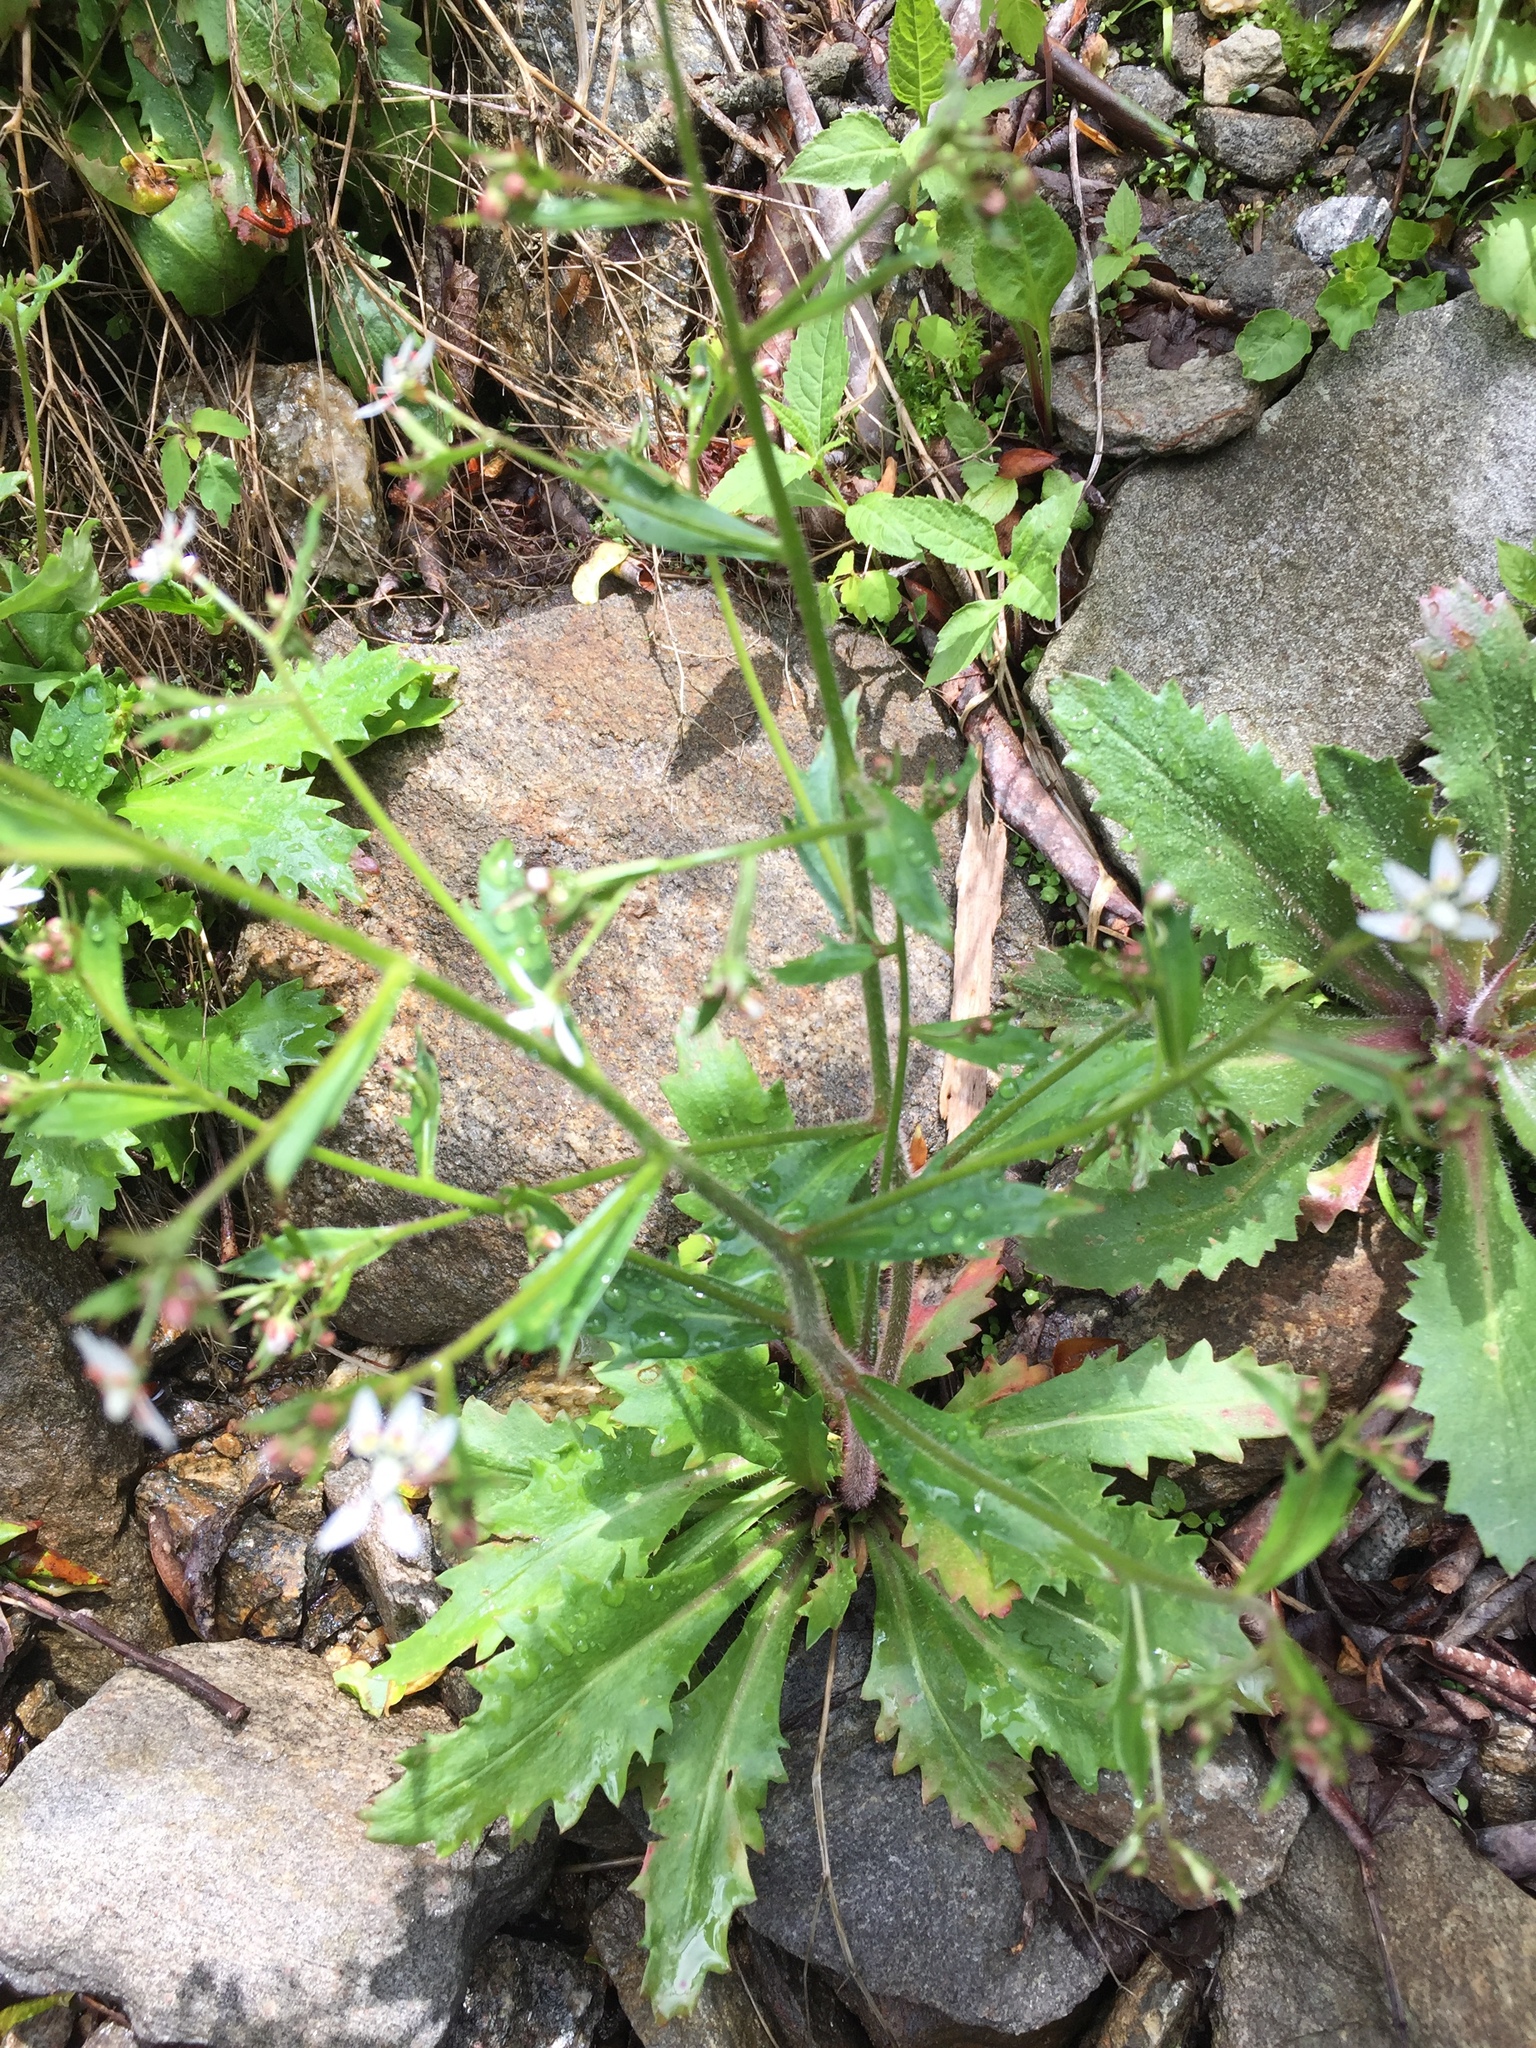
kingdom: Plantae
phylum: Tracheophyta
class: Magnoliopsida
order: Saxifragales
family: Saxifragaceae
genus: Micranthes
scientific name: Micranthes petiolaris
